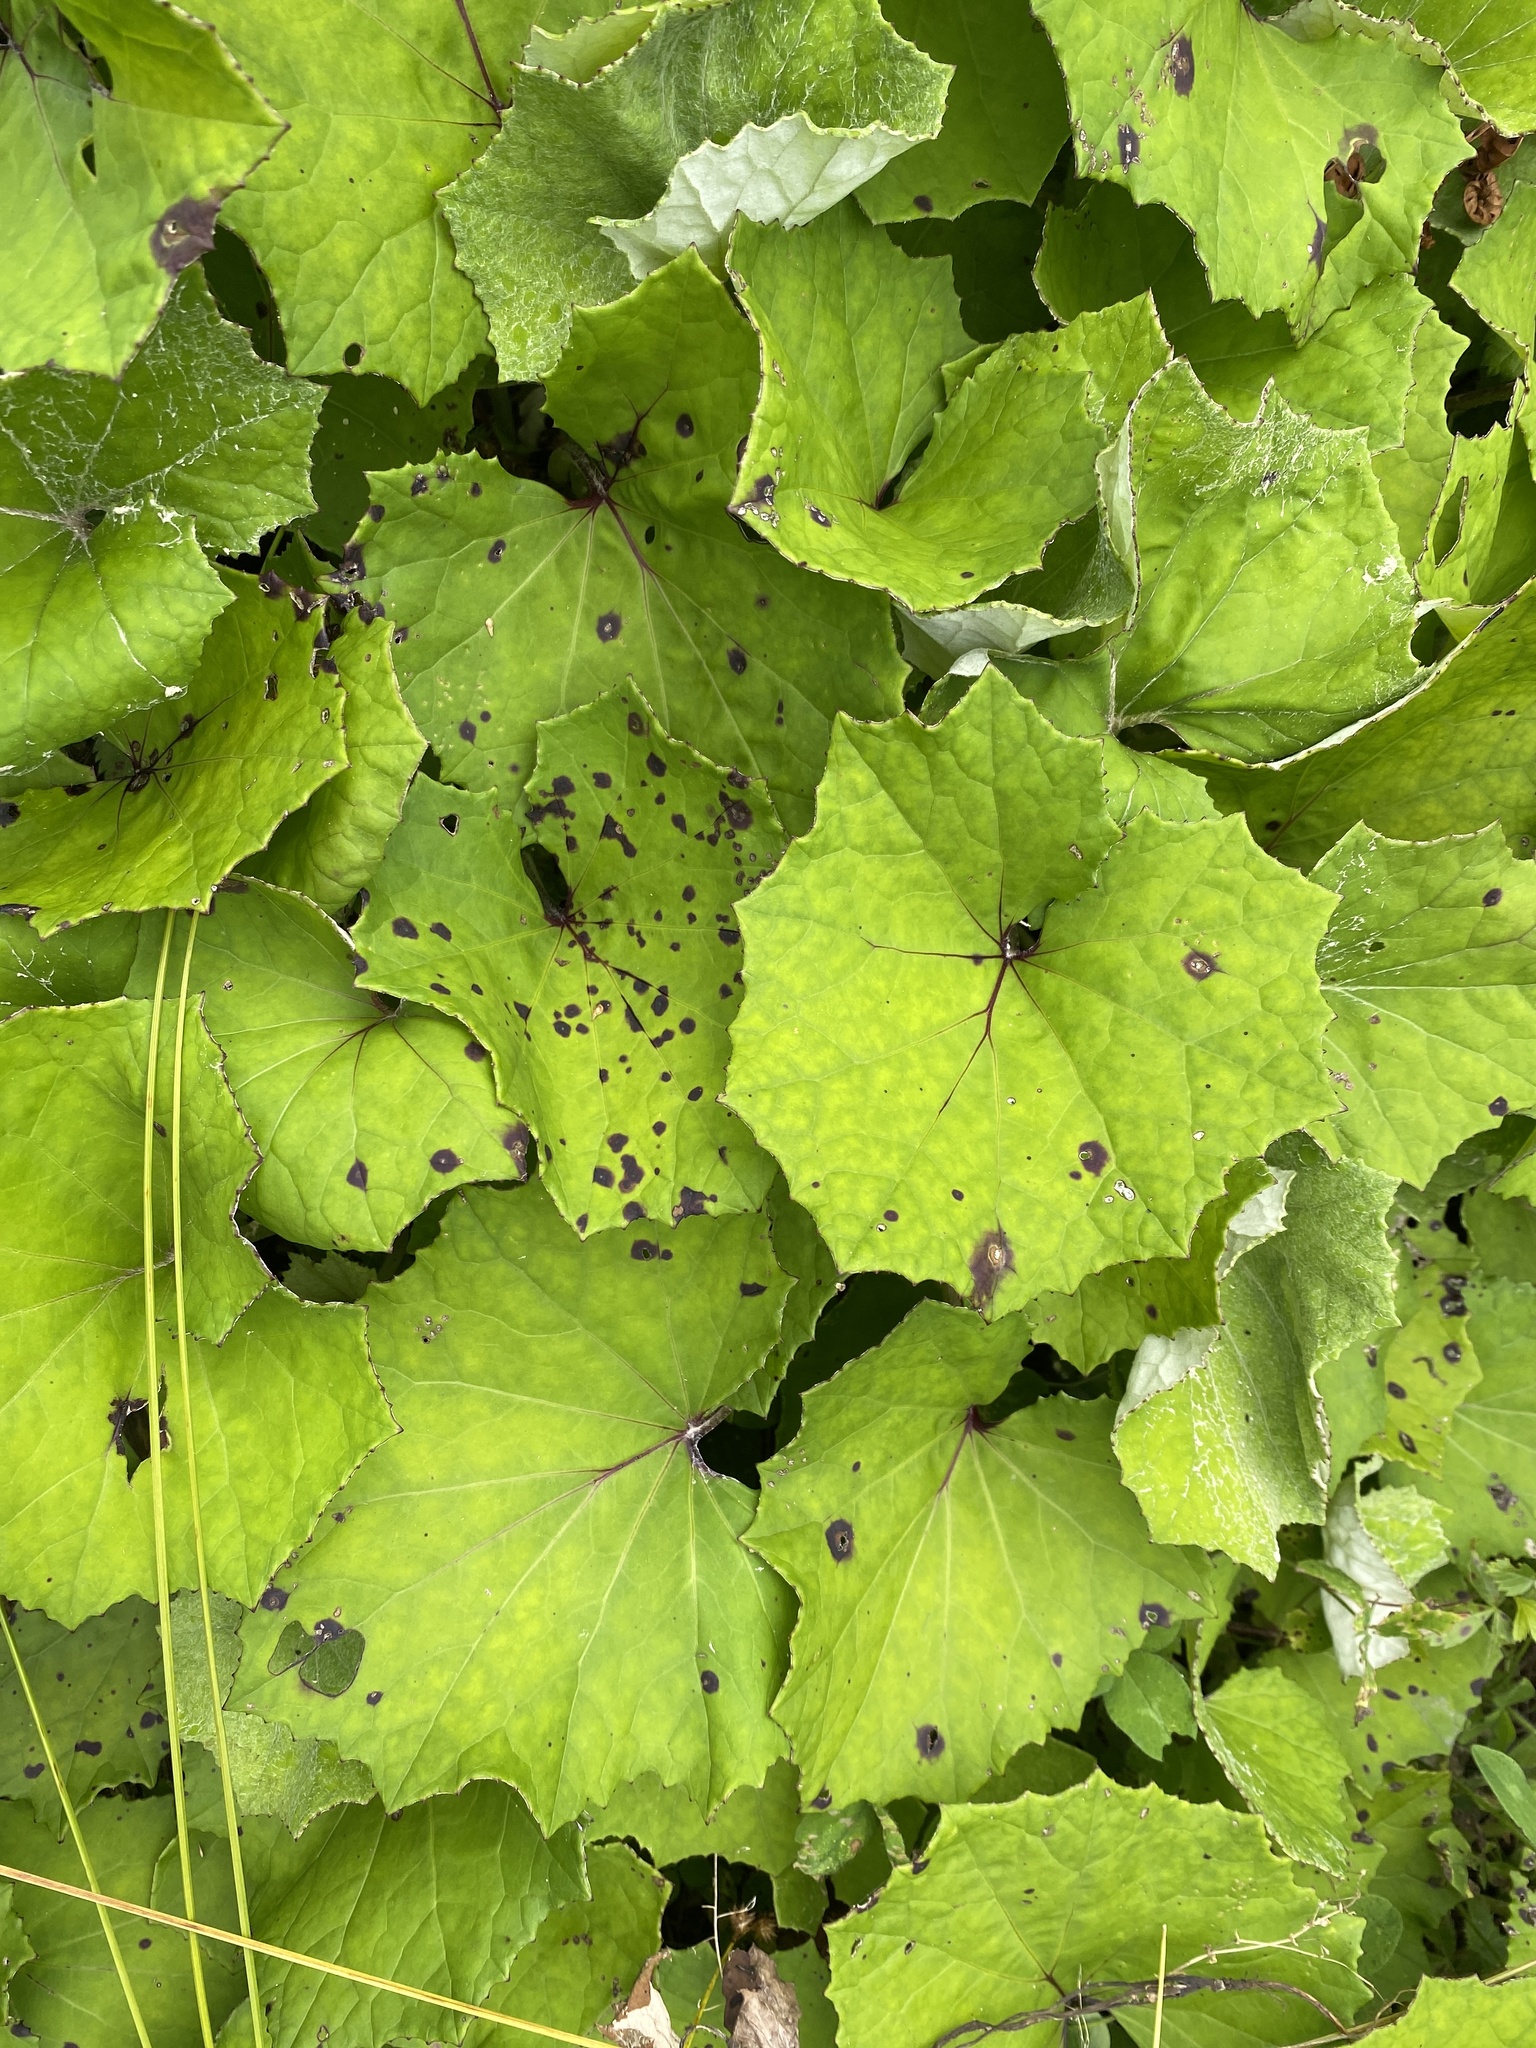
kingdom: Plantae
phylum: Tracheophyta
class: Magnoliopsida
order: Asterales
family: Asteraceae
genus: Tussilago
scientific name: Tussilago farfara
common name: Coltsfoot
